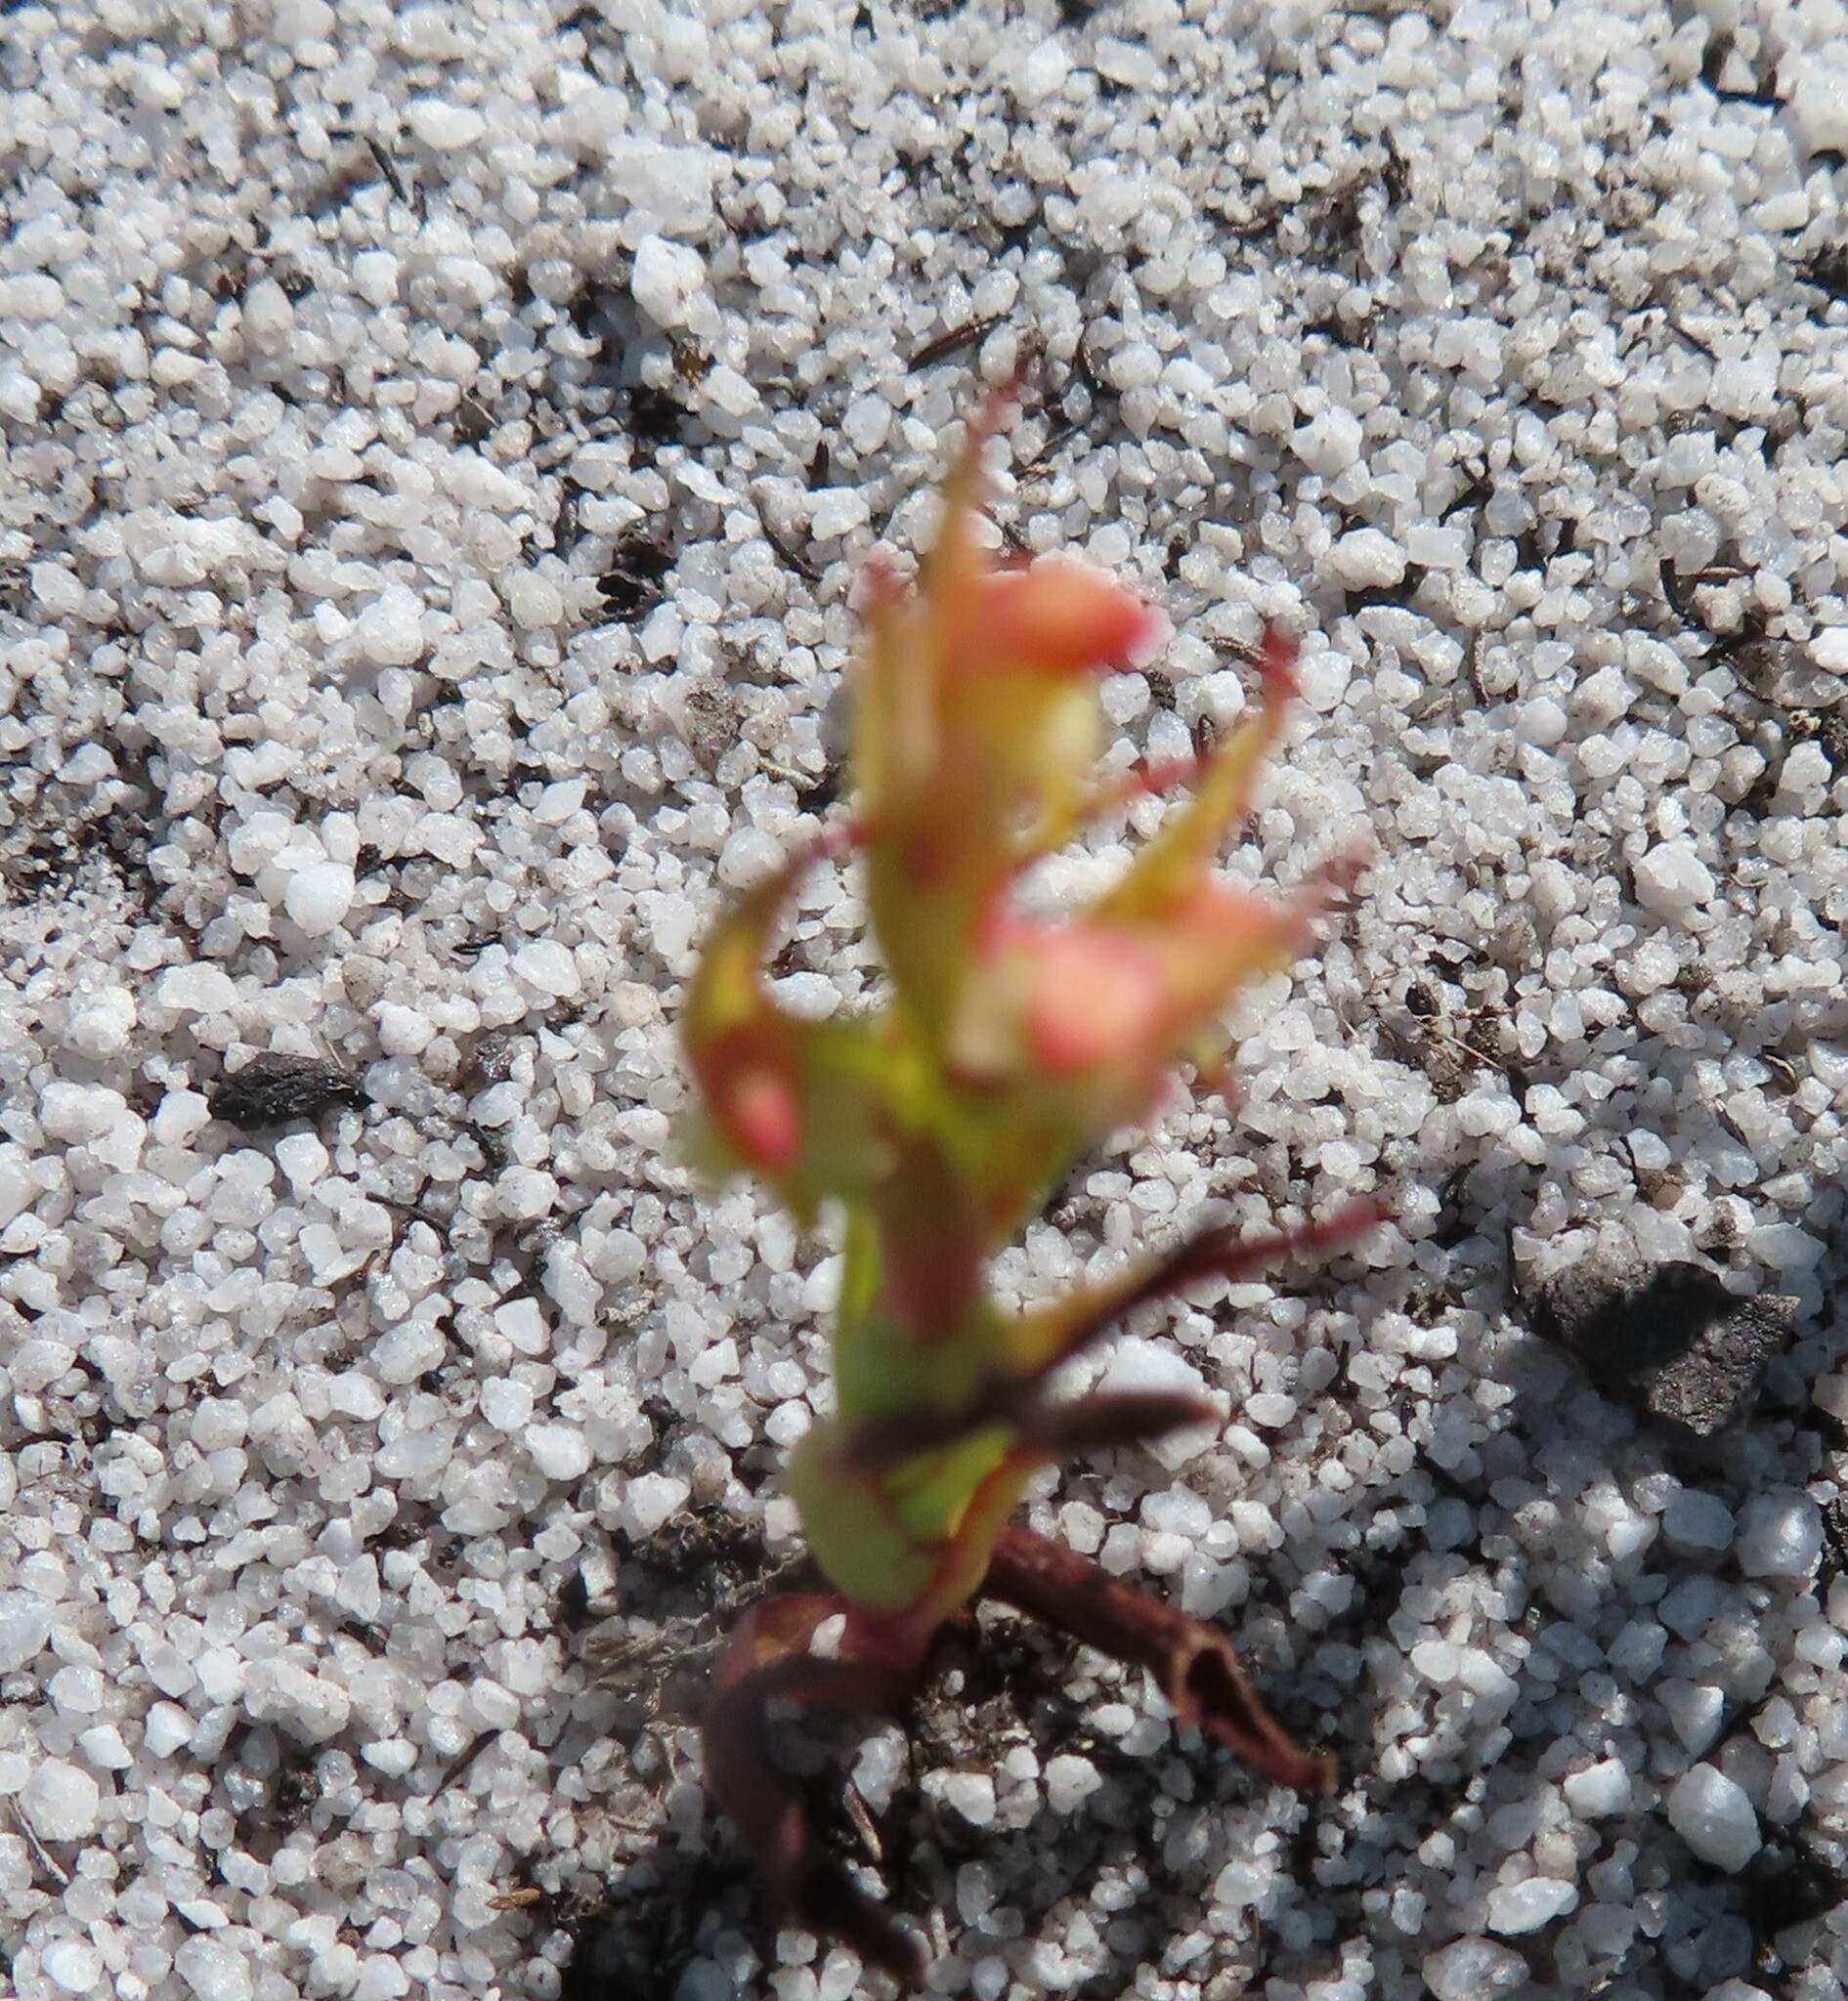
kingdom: Plantae
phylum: Tracheophyta
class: Liliopsida
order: Asparagales
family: Orchidaceae
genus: Disa
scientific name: Disa bracteata
